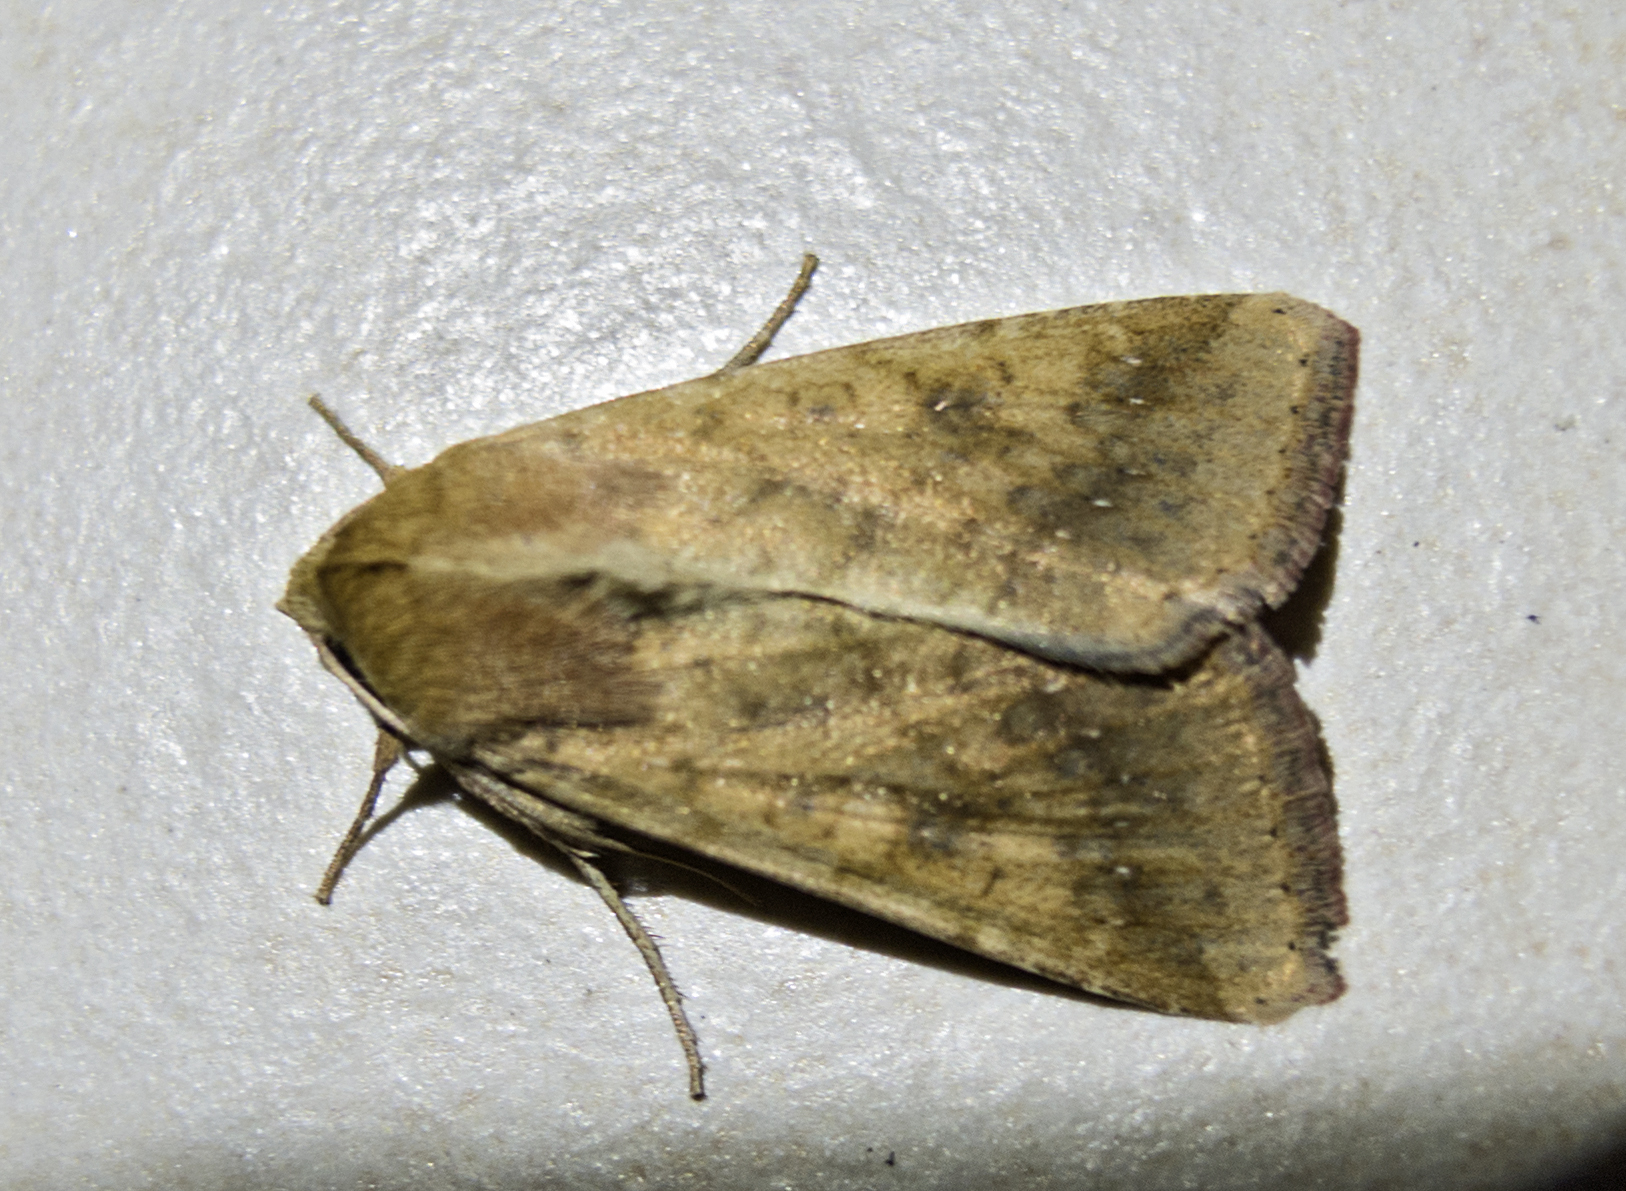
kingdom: Animalia
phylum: Arthropoda
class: Insecta
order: Lepidoptera
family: Noctuidae
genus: Helicoverpa
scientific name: Helicoverpa armigera
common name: Cotton bollworm
